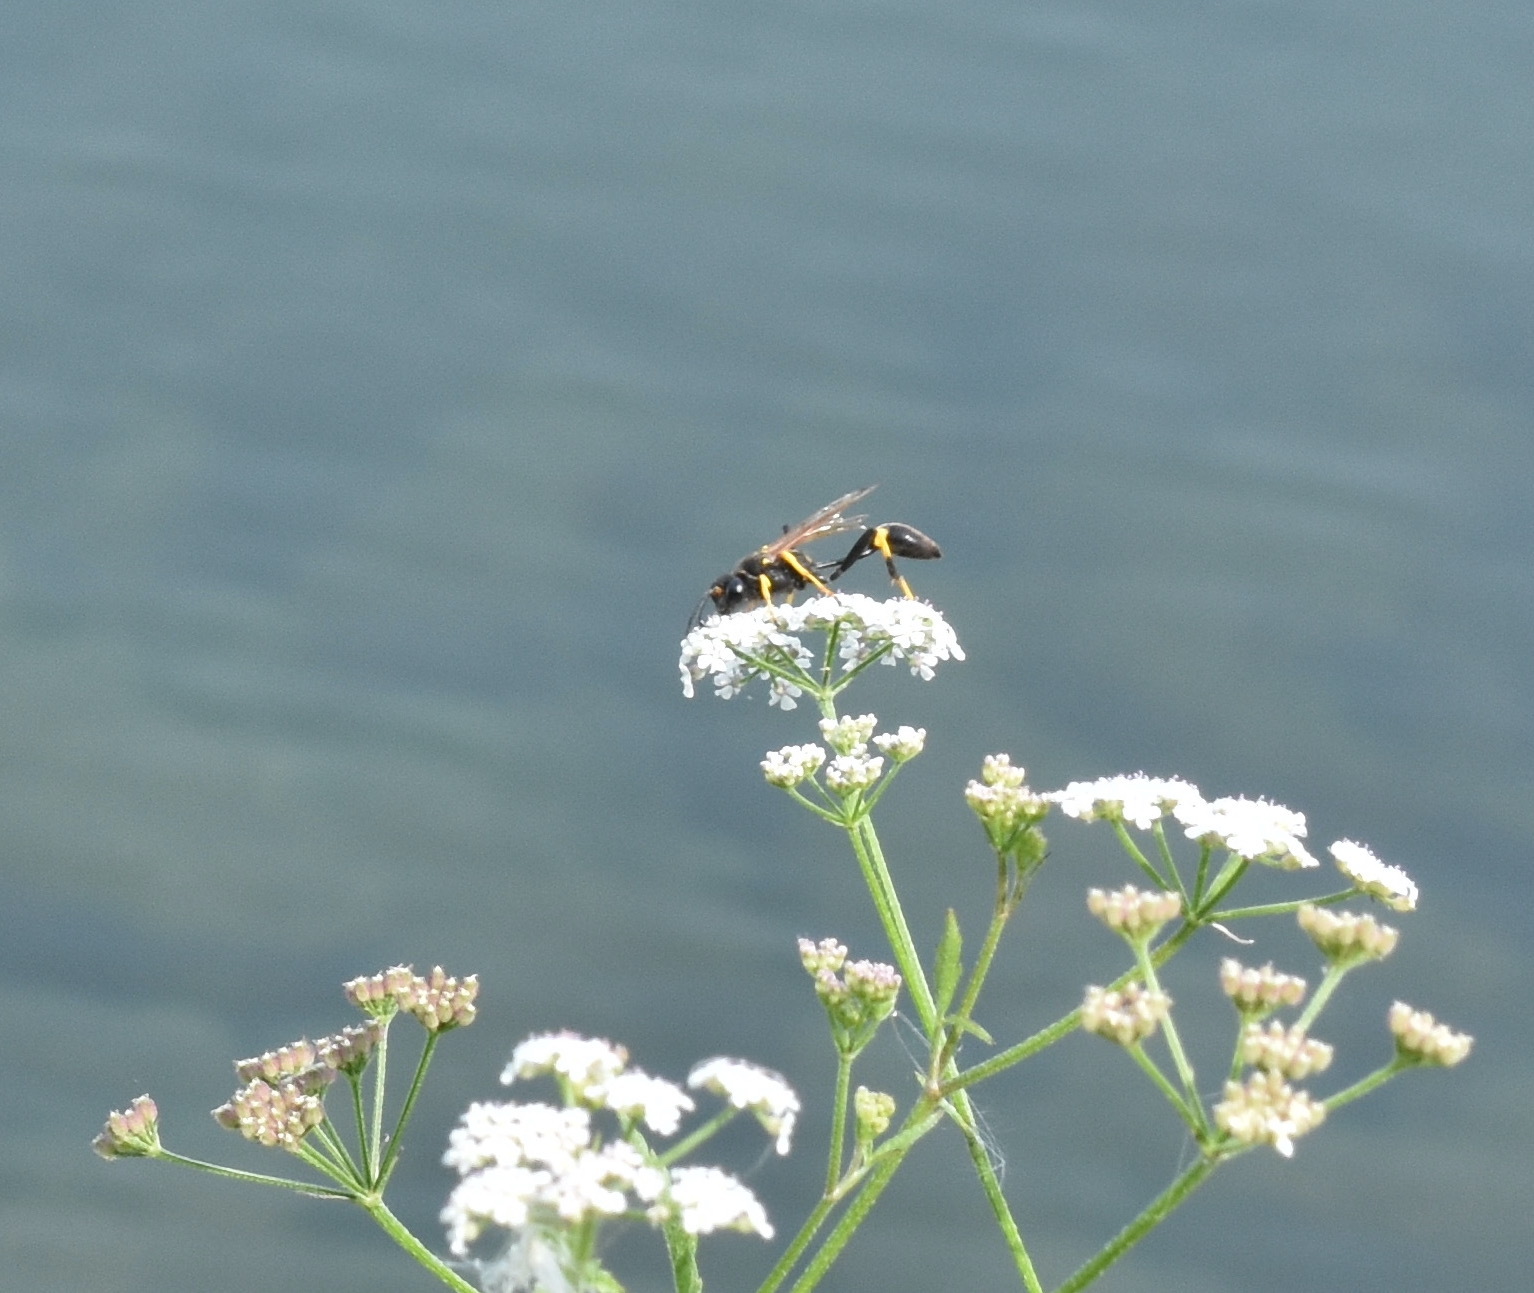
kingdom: Animalia
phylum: Arthropoda
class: Insecta
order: Hymenoptera
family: Sphecidae
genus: Sceliphron
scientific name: Sceliphron caementarium
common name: Mud dauber
